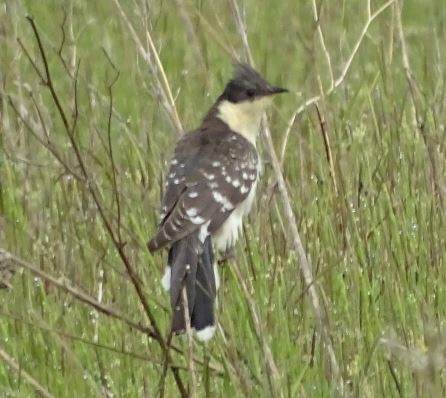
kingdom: Animalia
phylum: Chordata
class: Aves
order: Cuculiformes
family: Cuculidae
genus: Clamator
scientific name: Clamator glandarius
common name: Great spotted cuckoo
